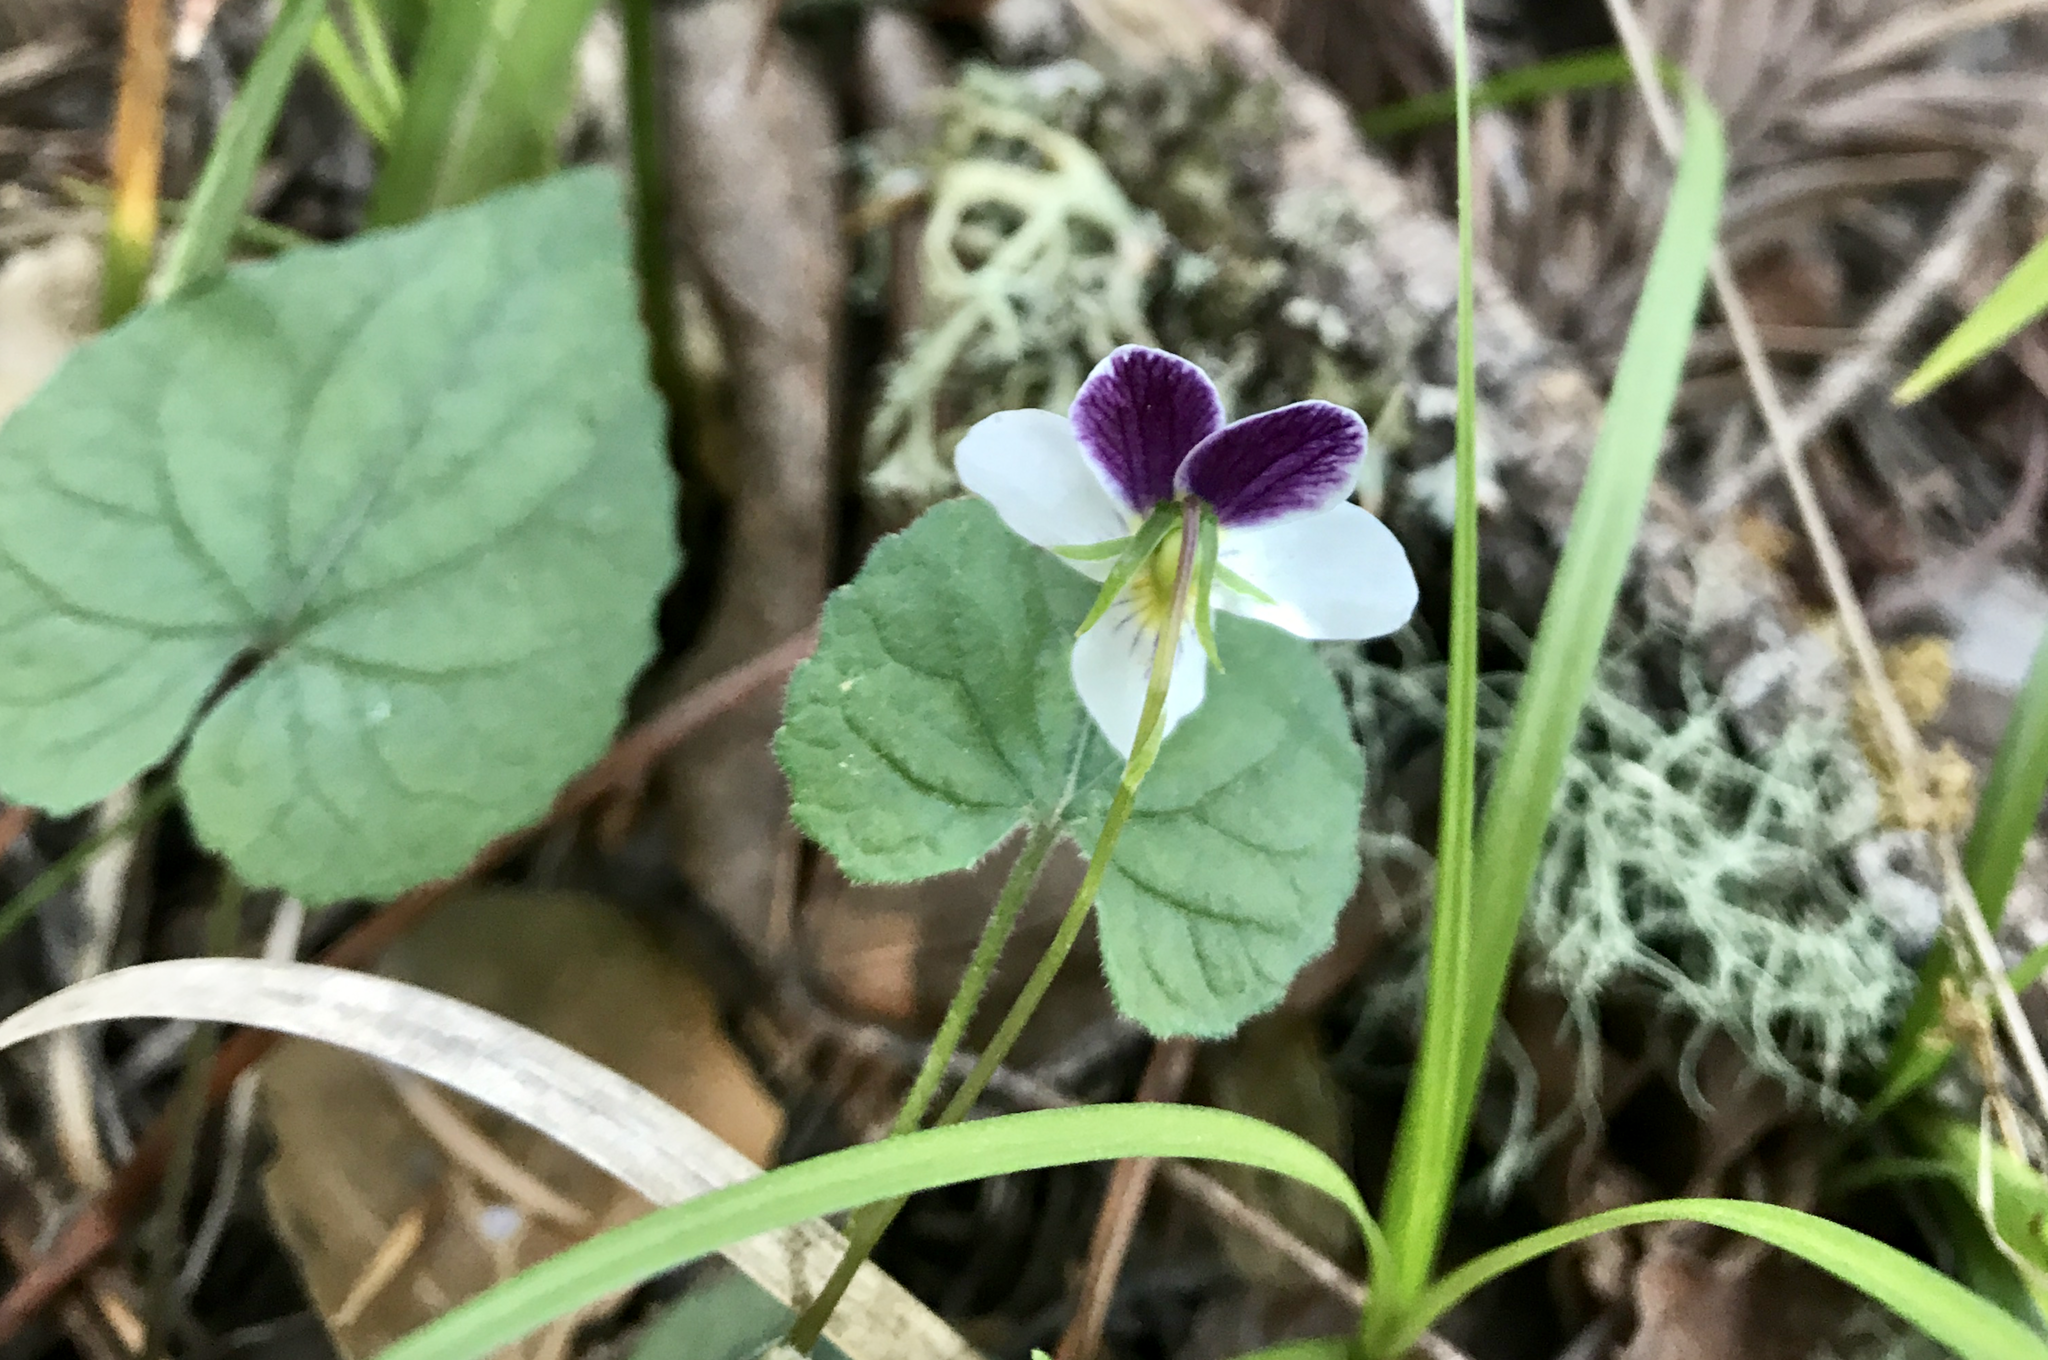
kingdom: Plantae
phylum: Tracheophyta
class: Magnoliopsida
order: Malpighiales
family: Violaceae
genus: Viola
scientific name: Viola ocellata
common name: Western heart's ease
